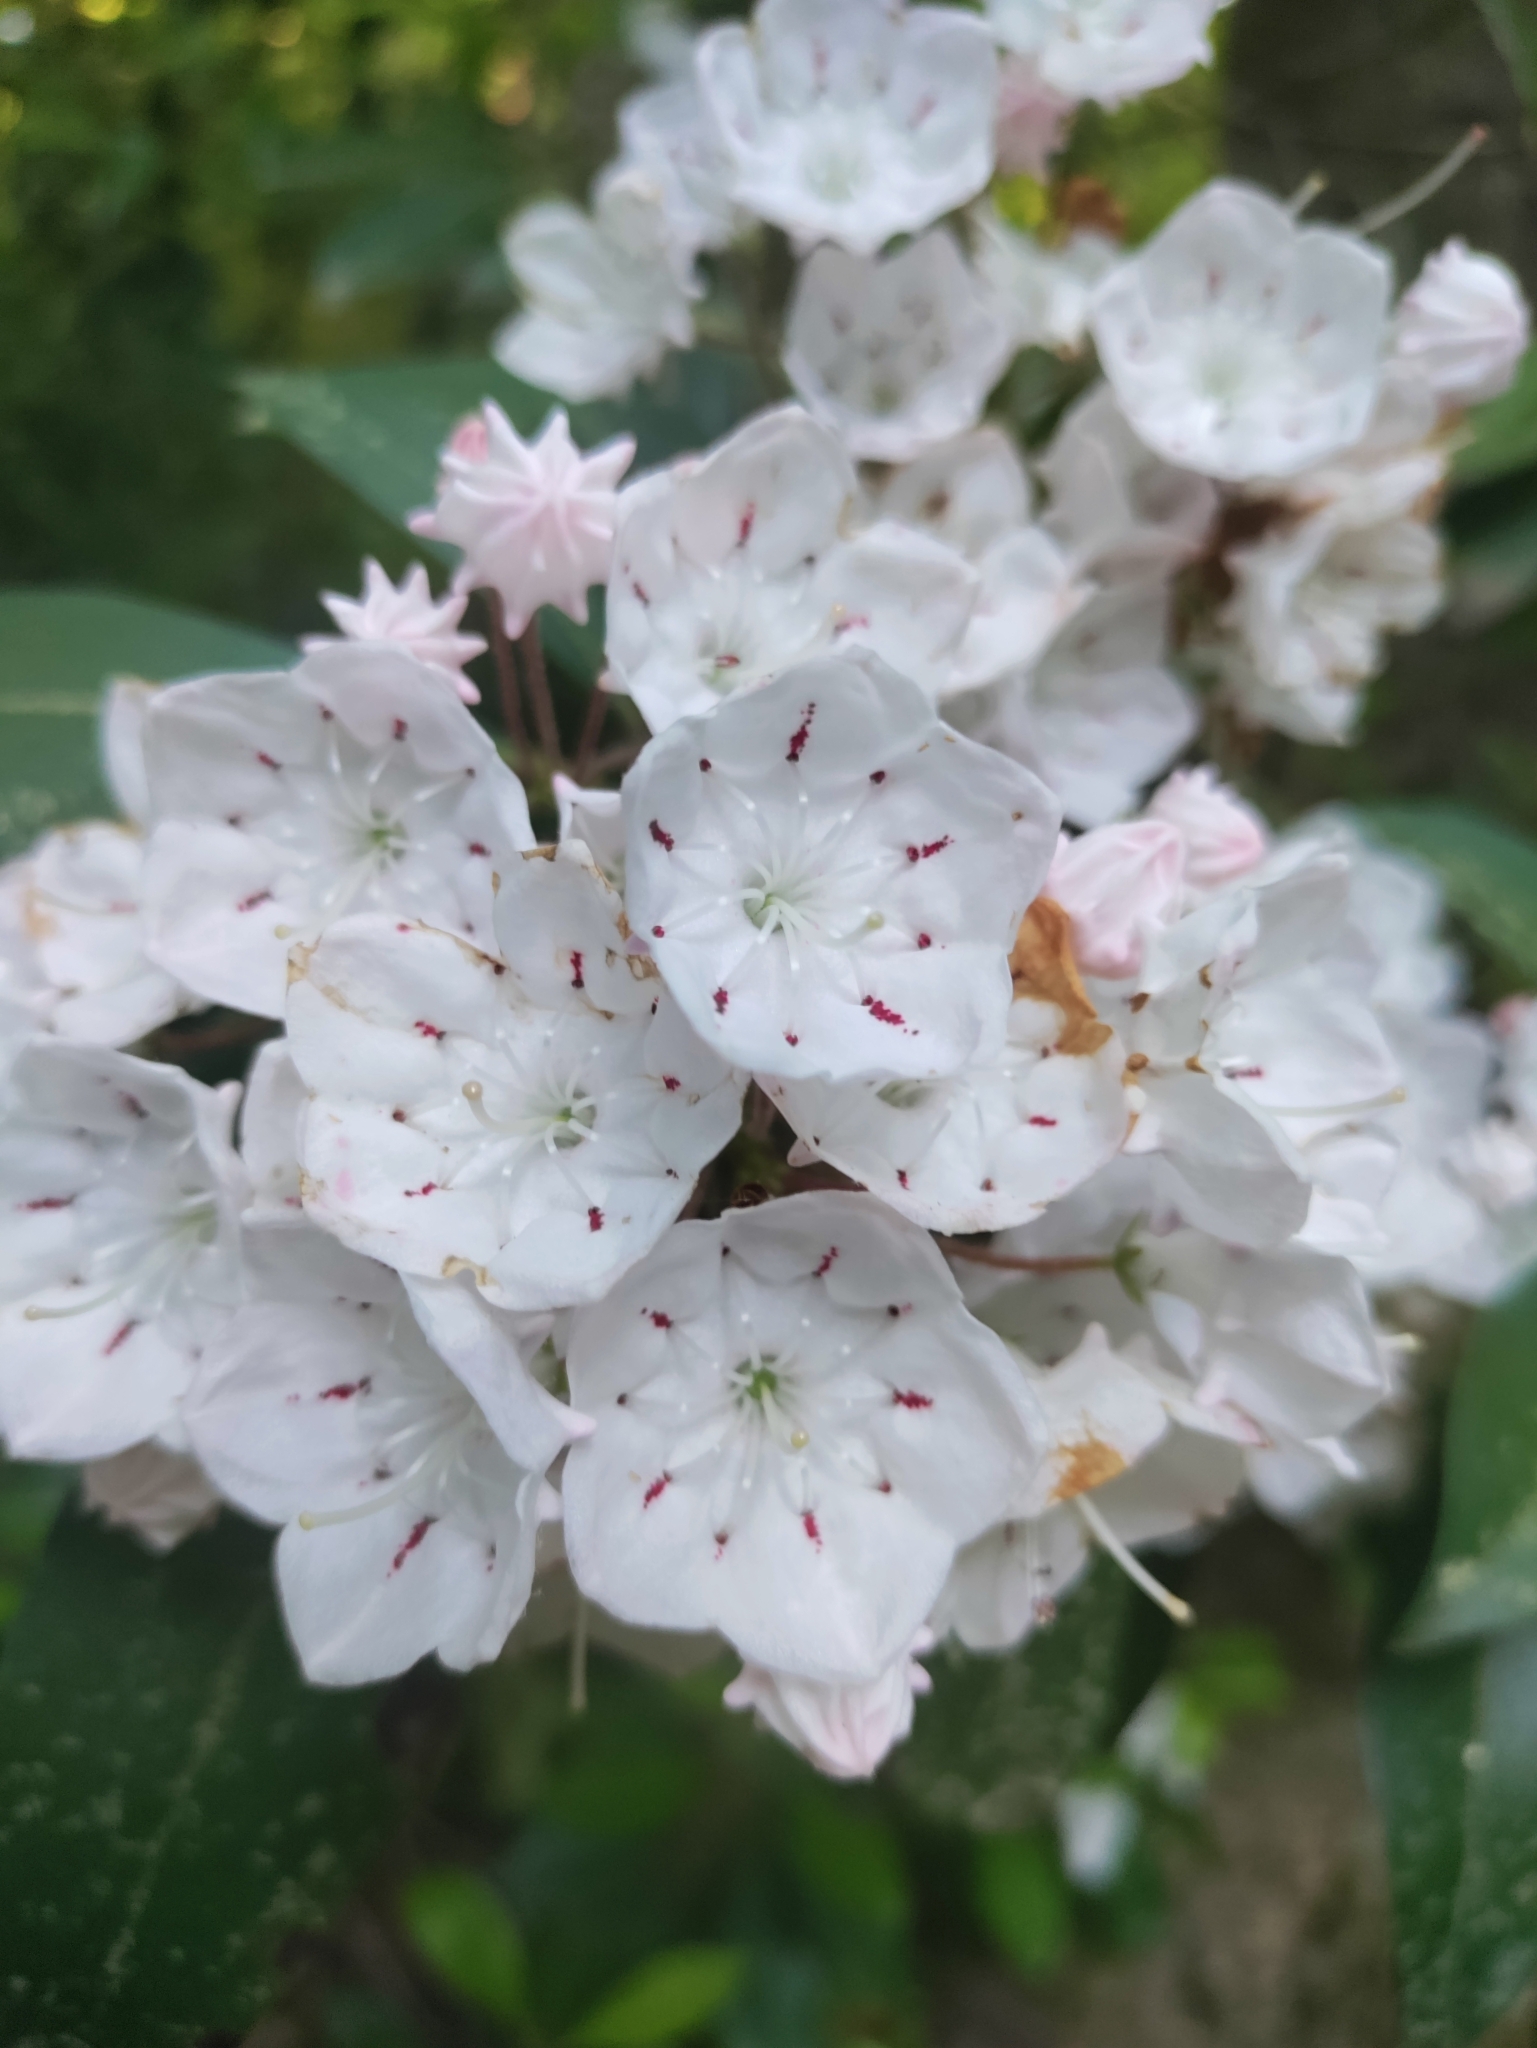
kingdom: Plantae
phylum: Tracheophyta
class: Magnoliopsida
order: Ericales
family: Ericaceae
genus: Kalmia
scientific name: Kalmia latifolia
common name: Mountain-laurel
